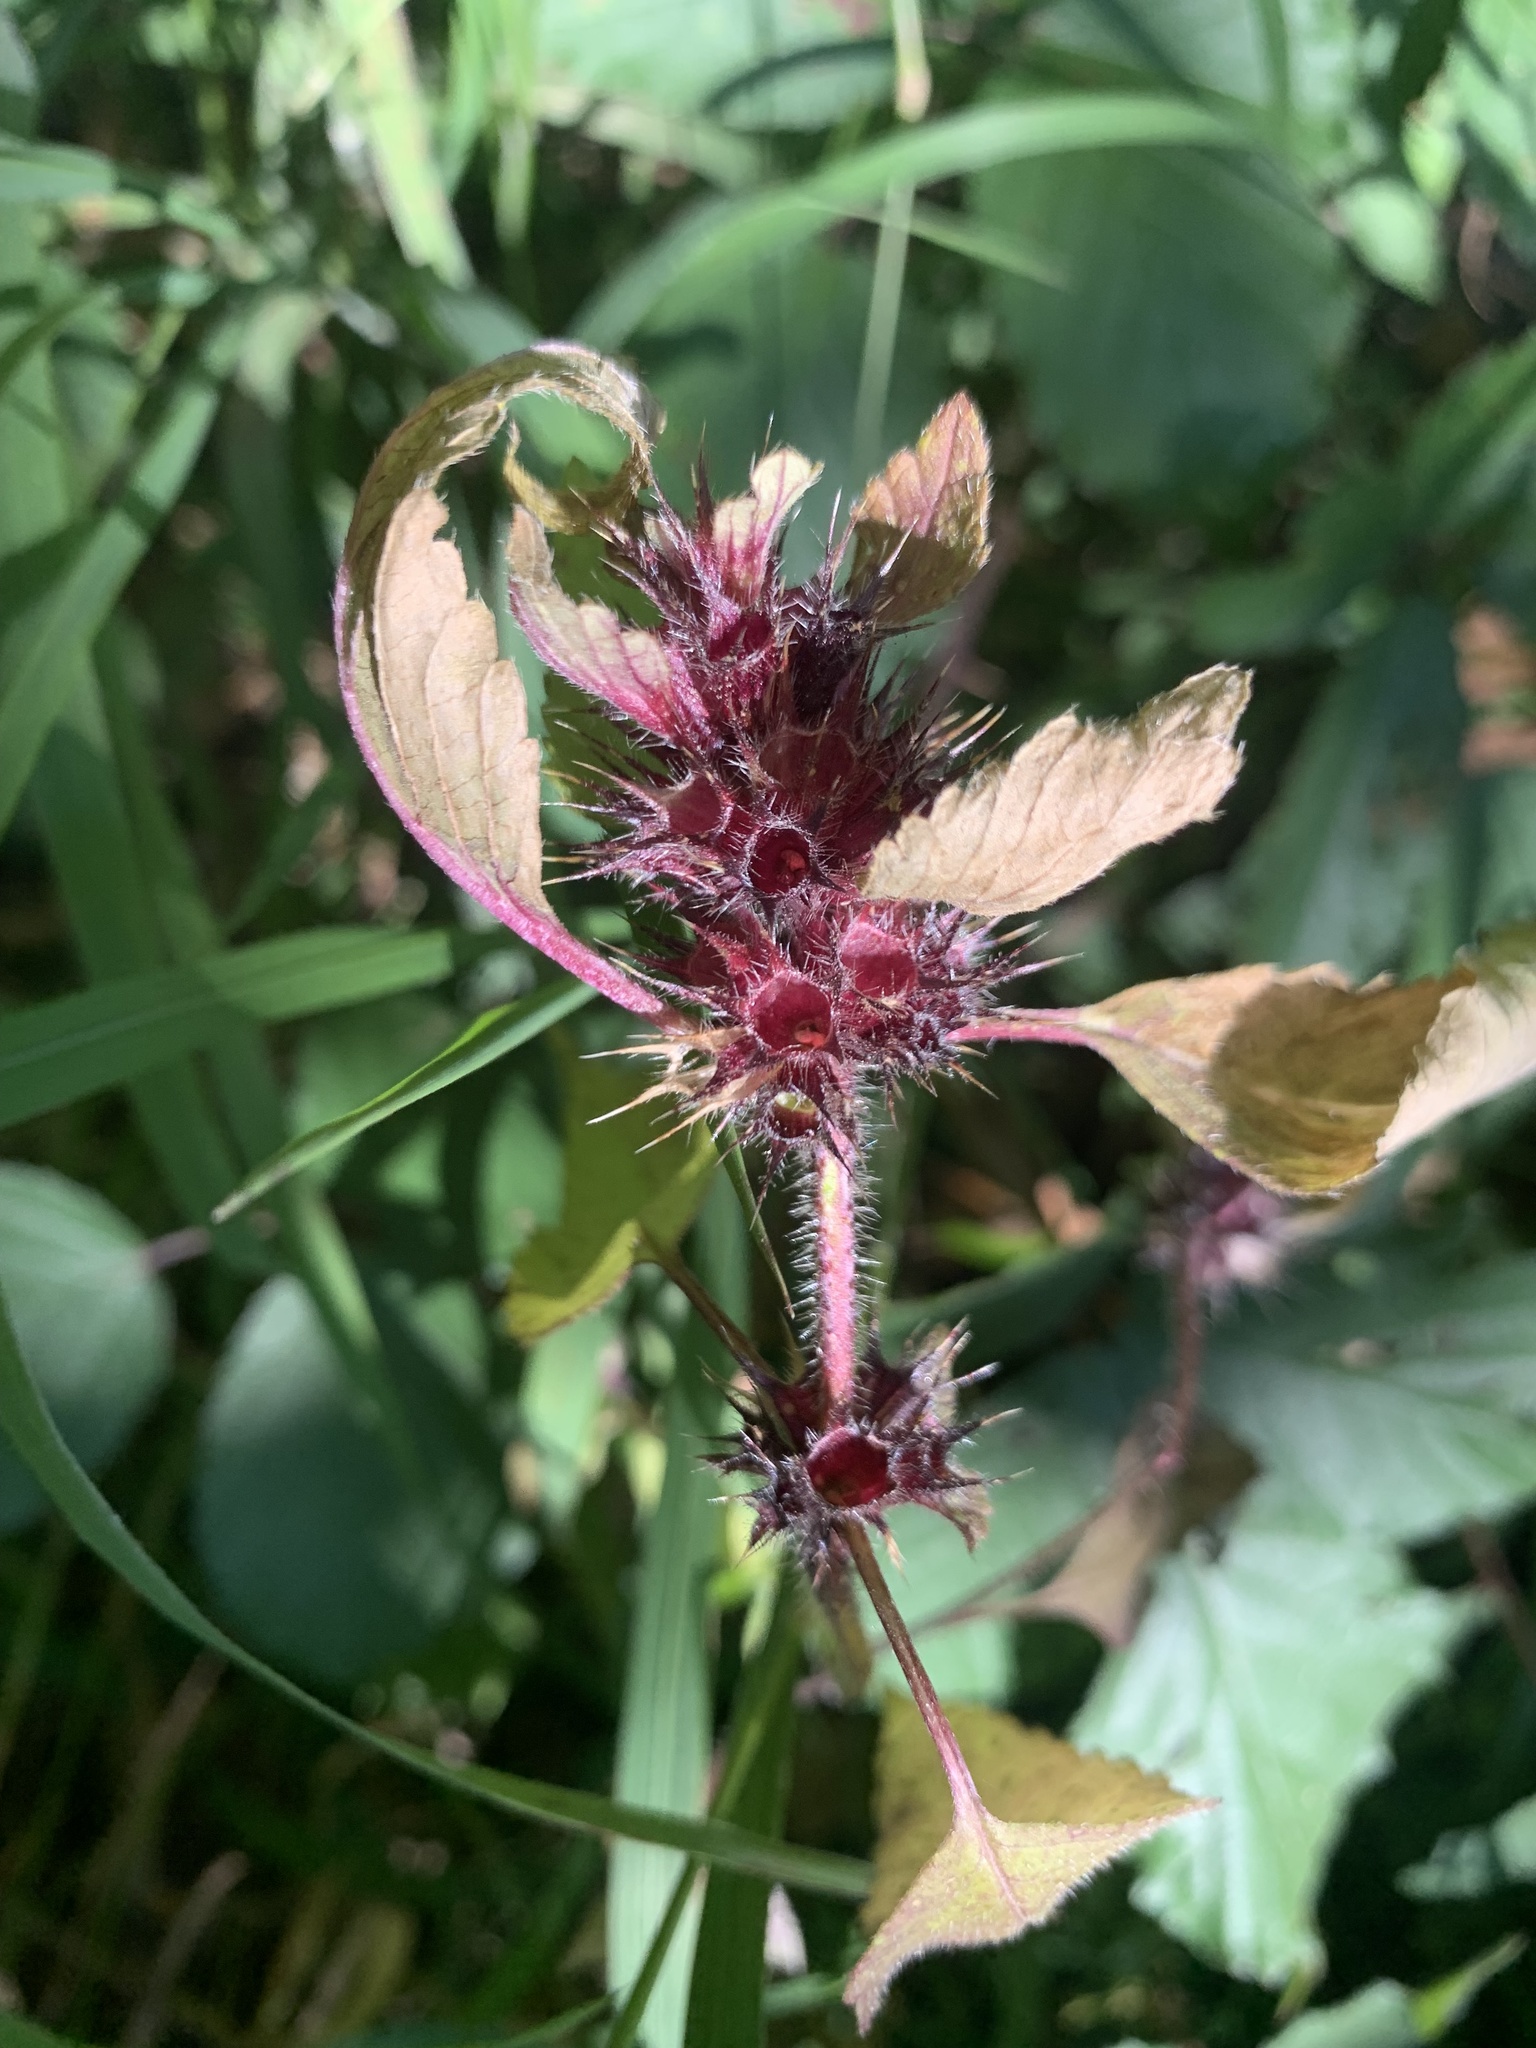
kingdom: Plantae
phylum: Tracheophyta
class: Magnoliopsida
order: Lamiales
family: Lamiaceae
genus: Galeopsis
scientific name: Galeopsis tetrahit
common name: Common hemp-nettle
